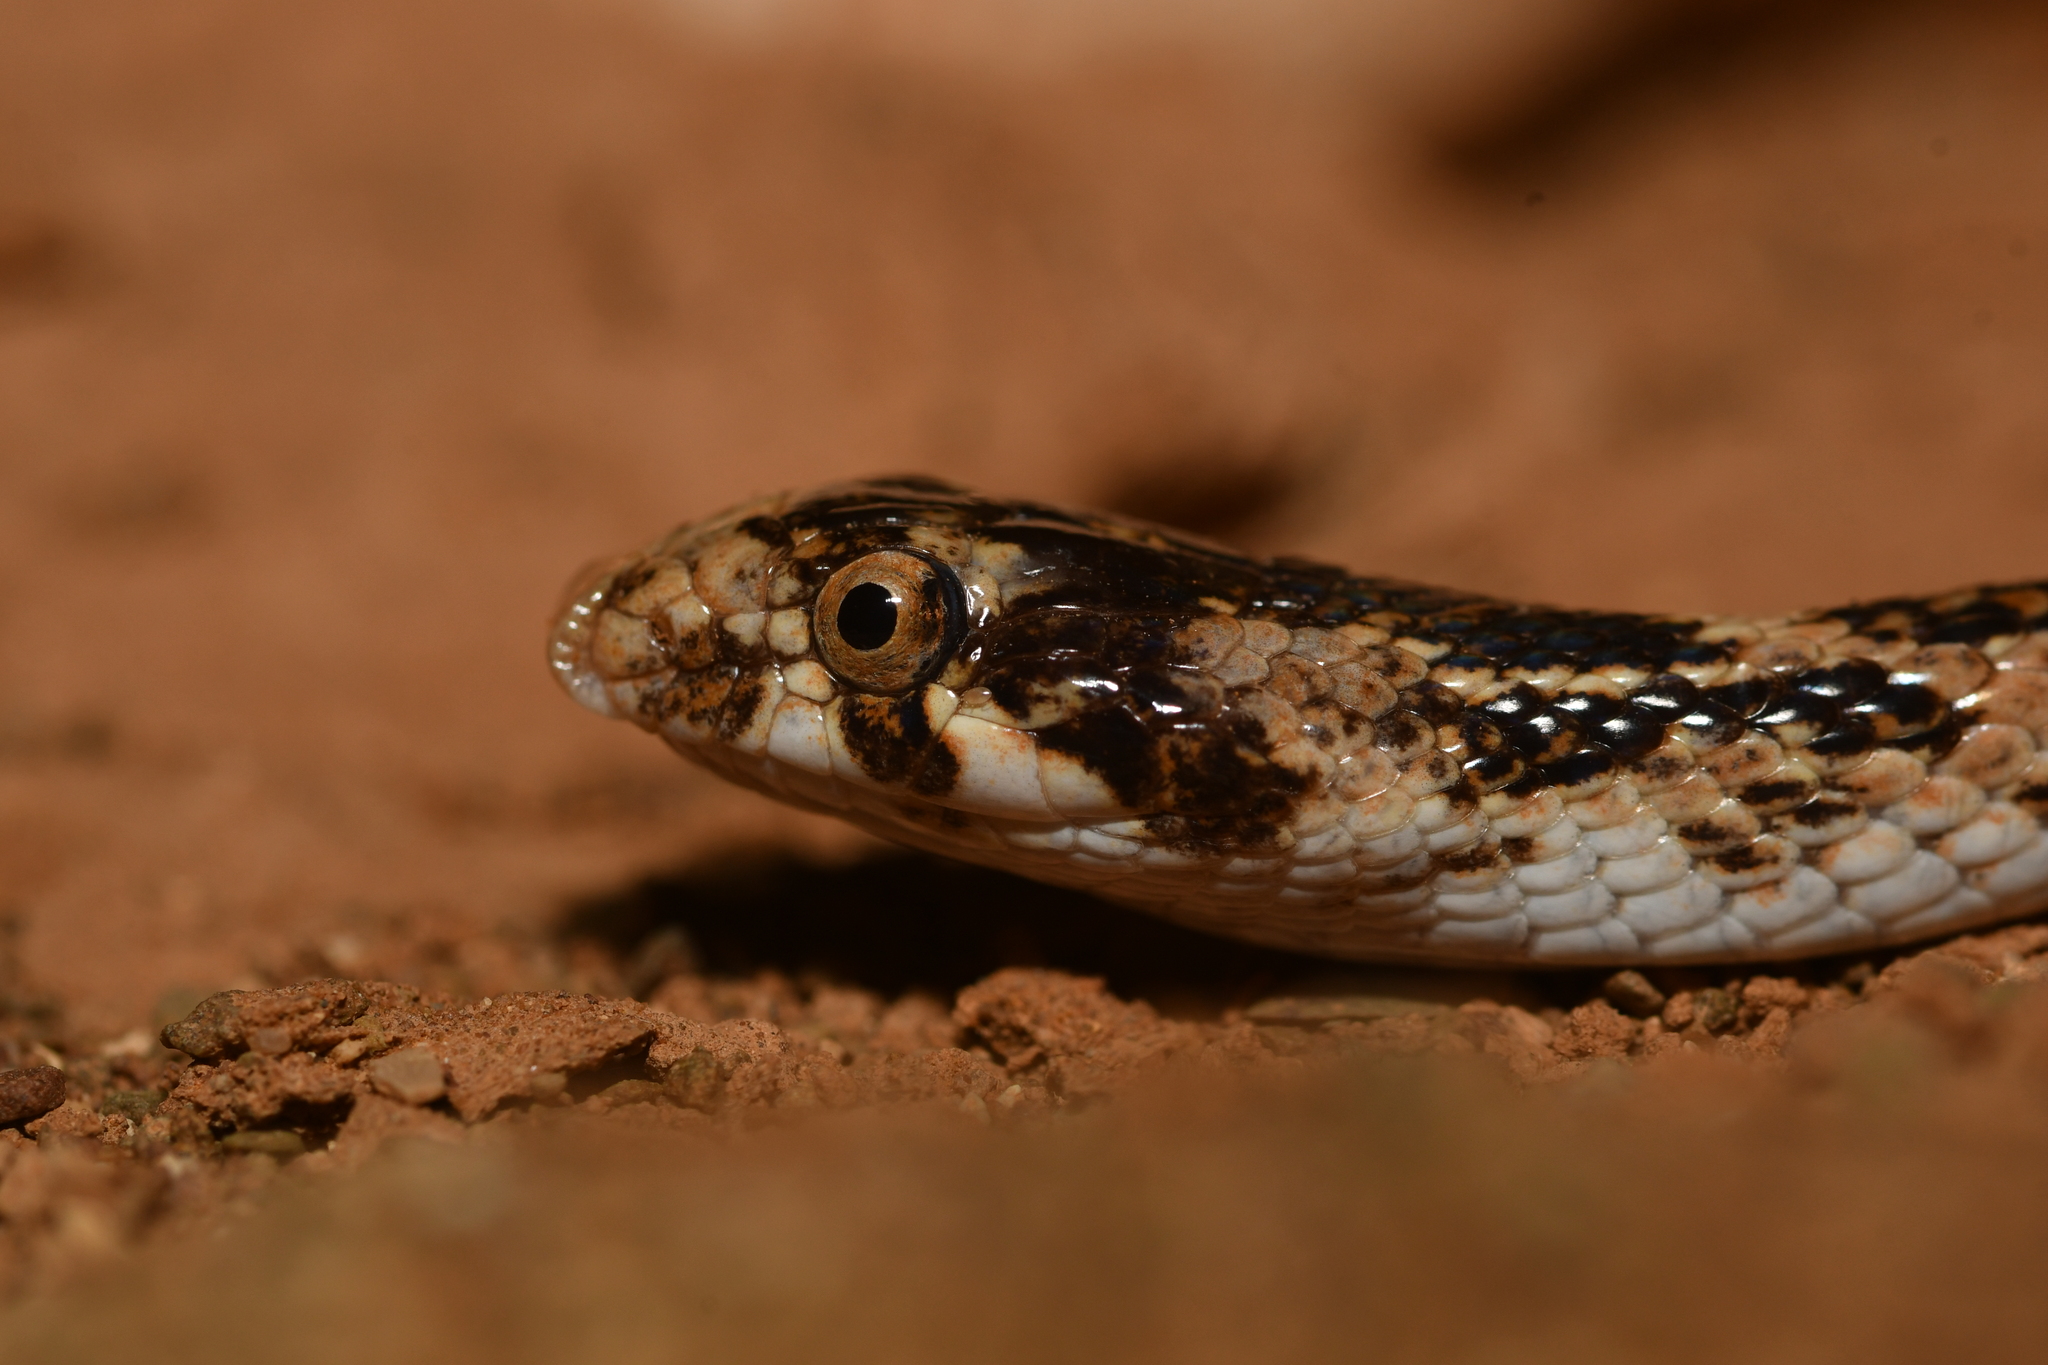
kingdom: Animalia
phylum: Chordata
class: Squamata
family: Colubridae
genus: Lytorhynchus
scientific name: Lytorhynchus diadema
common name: Awl-headed snake
